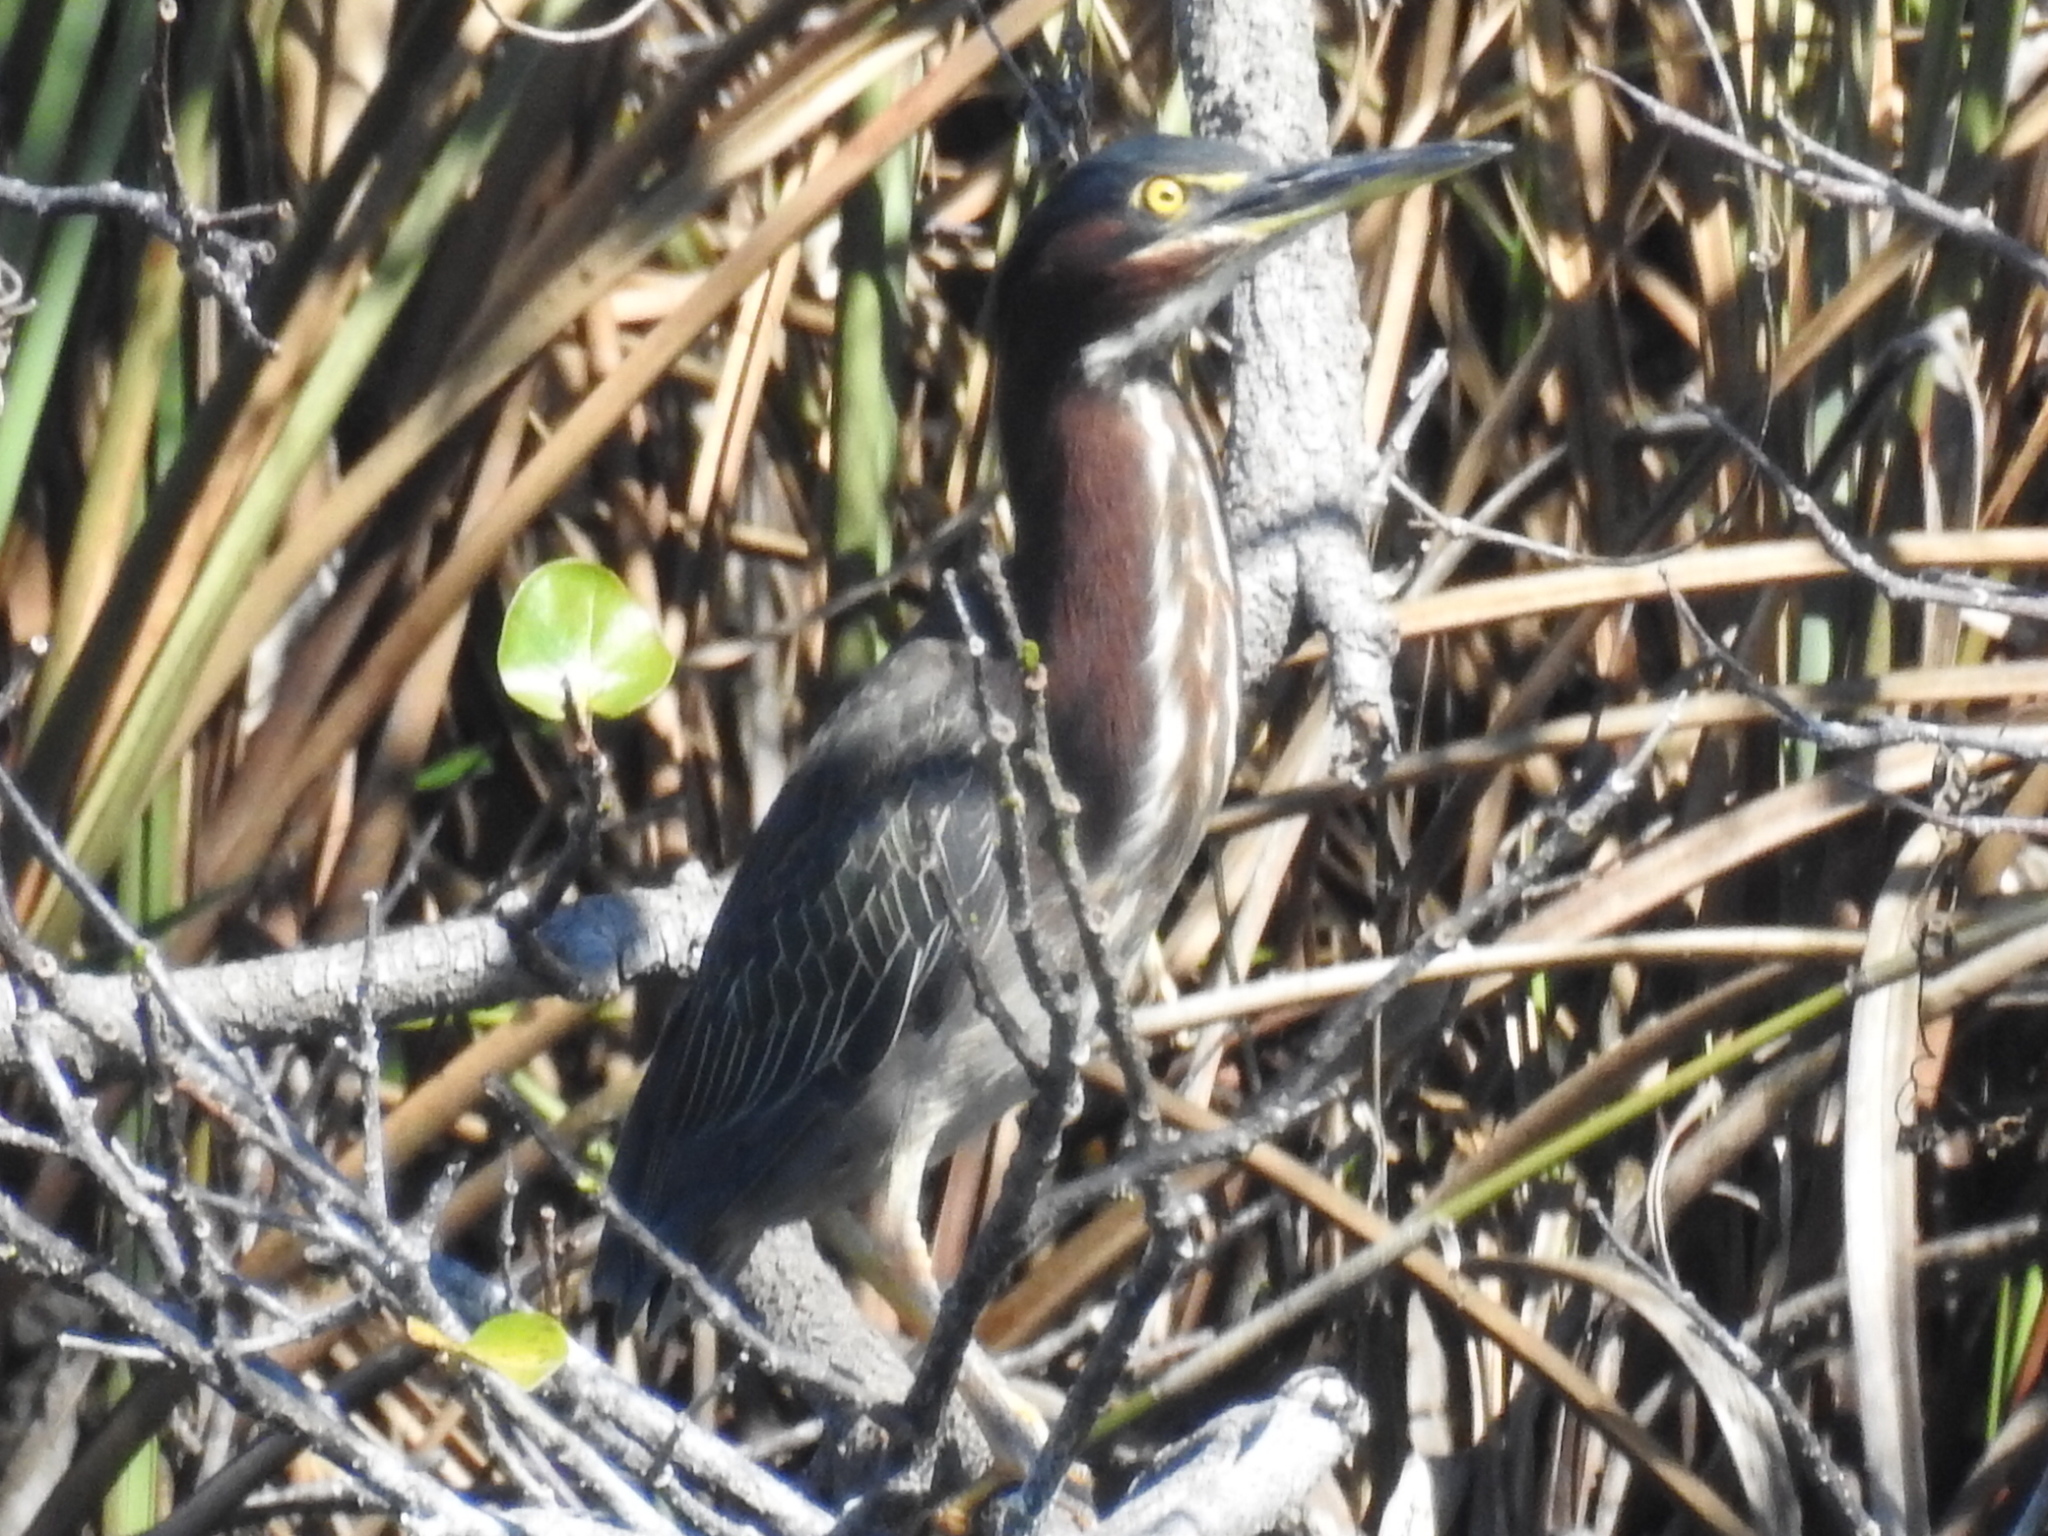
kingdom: Animalia
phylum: Chordata
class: Aves
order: Pelecaniformes
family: Ardeidae
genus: Butorides
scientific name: Butorides virescens
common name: Green heron
